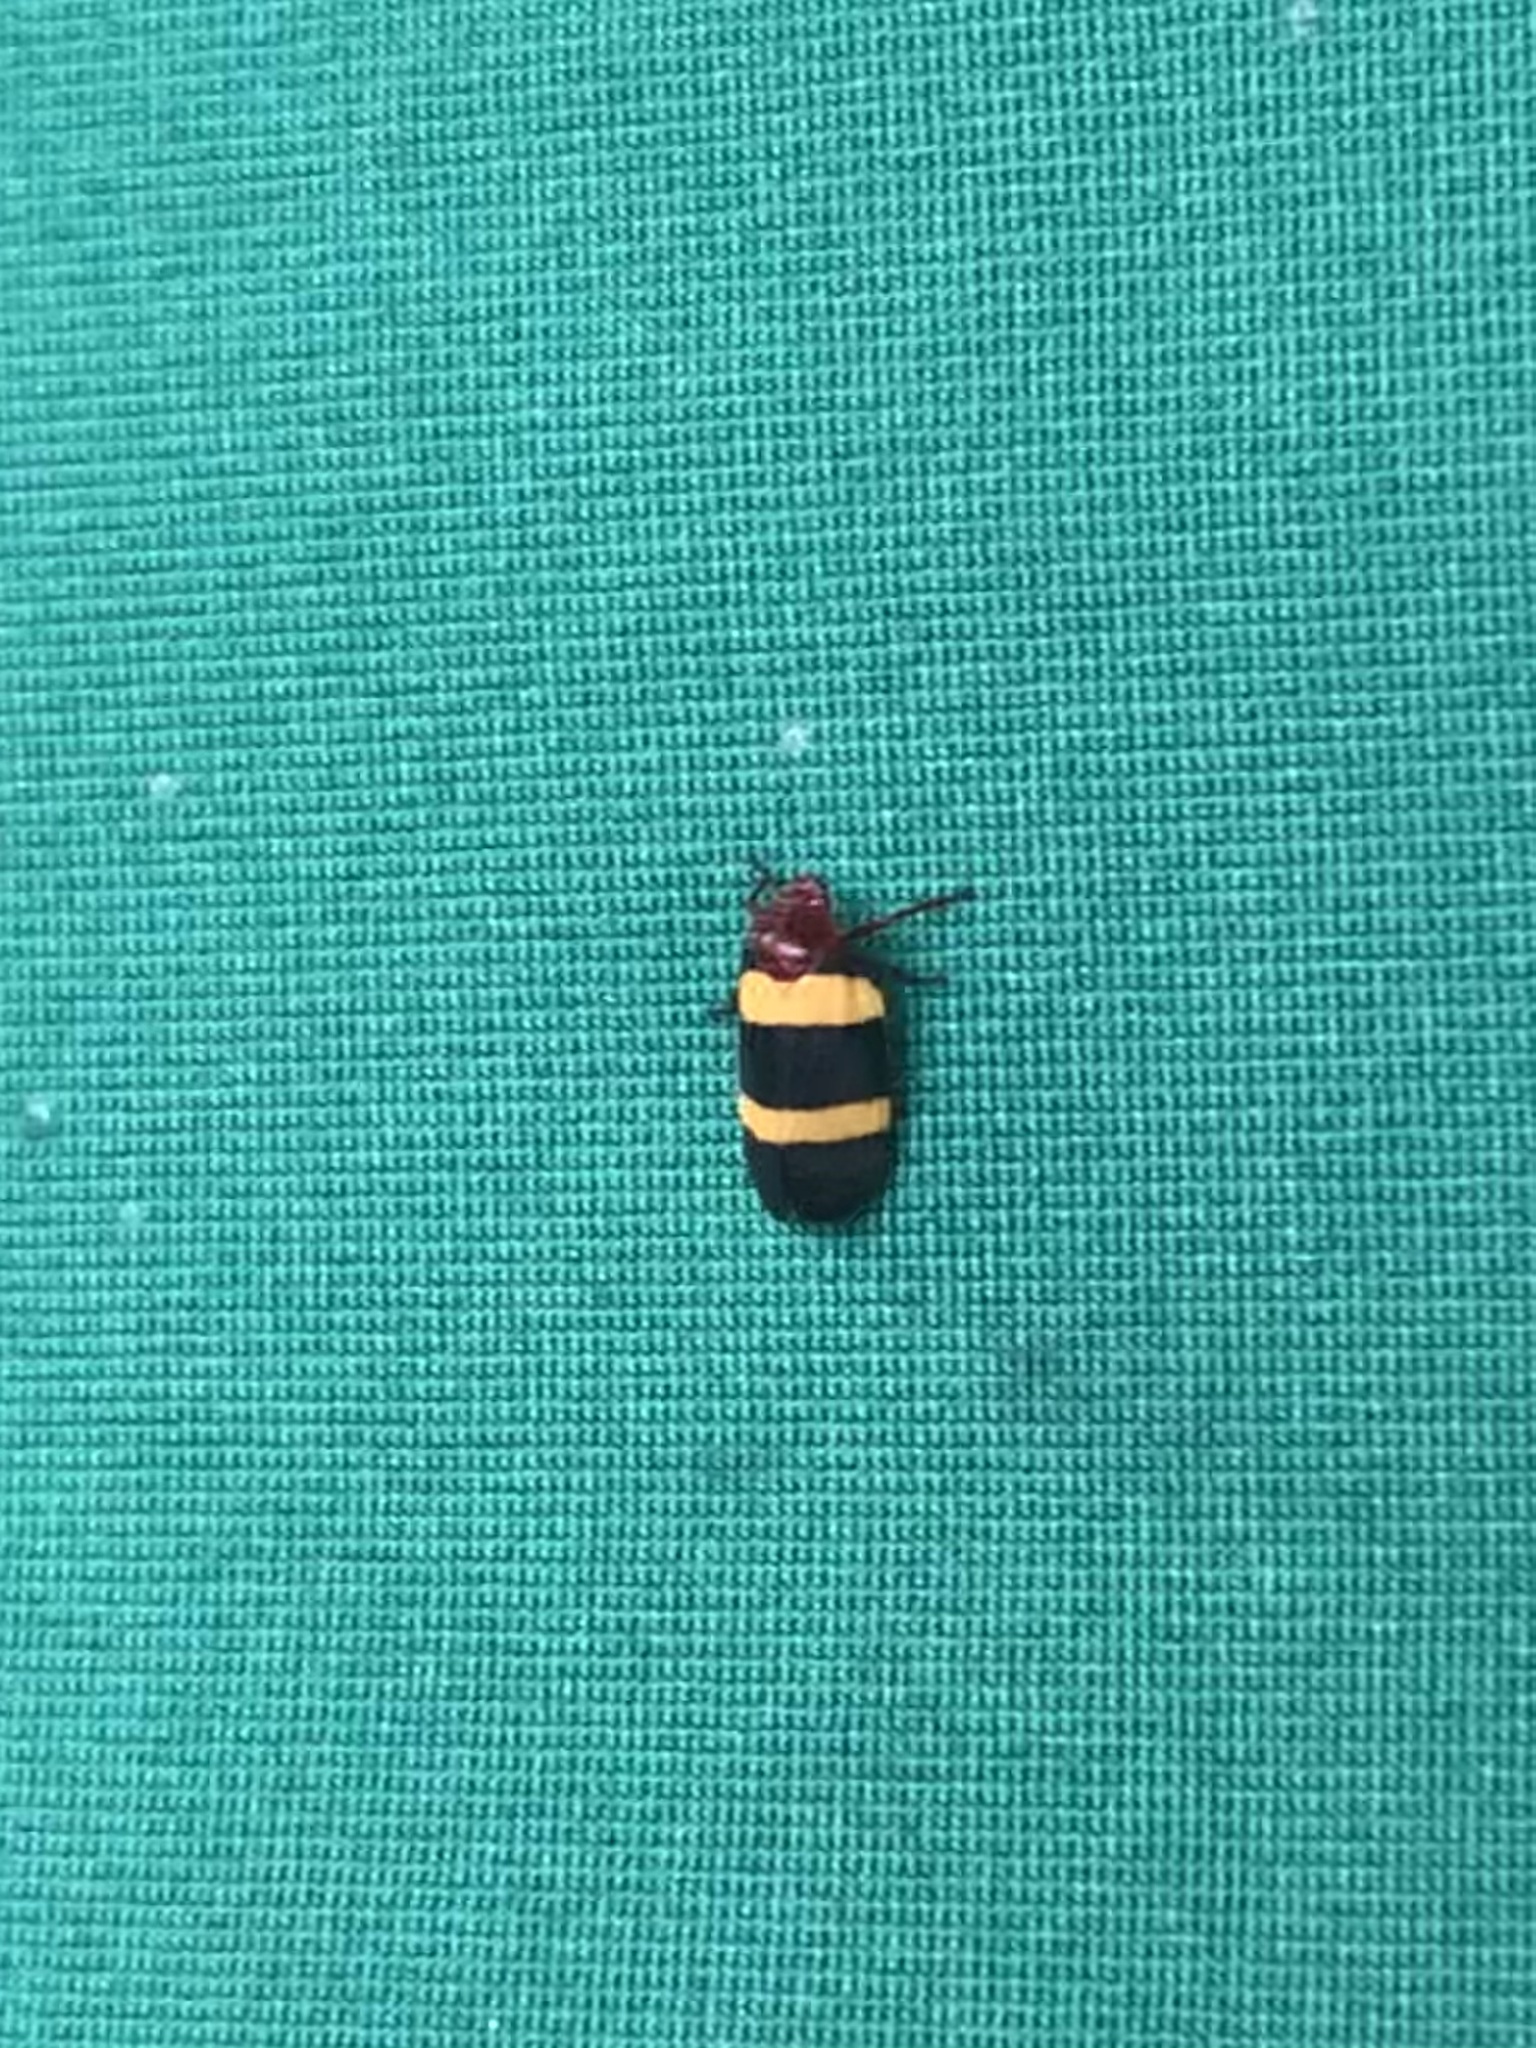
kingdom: Animalia
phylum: Arthropoda
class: Insecta
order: Hemiptera
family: Cercopidae
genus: Sphenorhina
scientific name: Sphenorhina rubra
